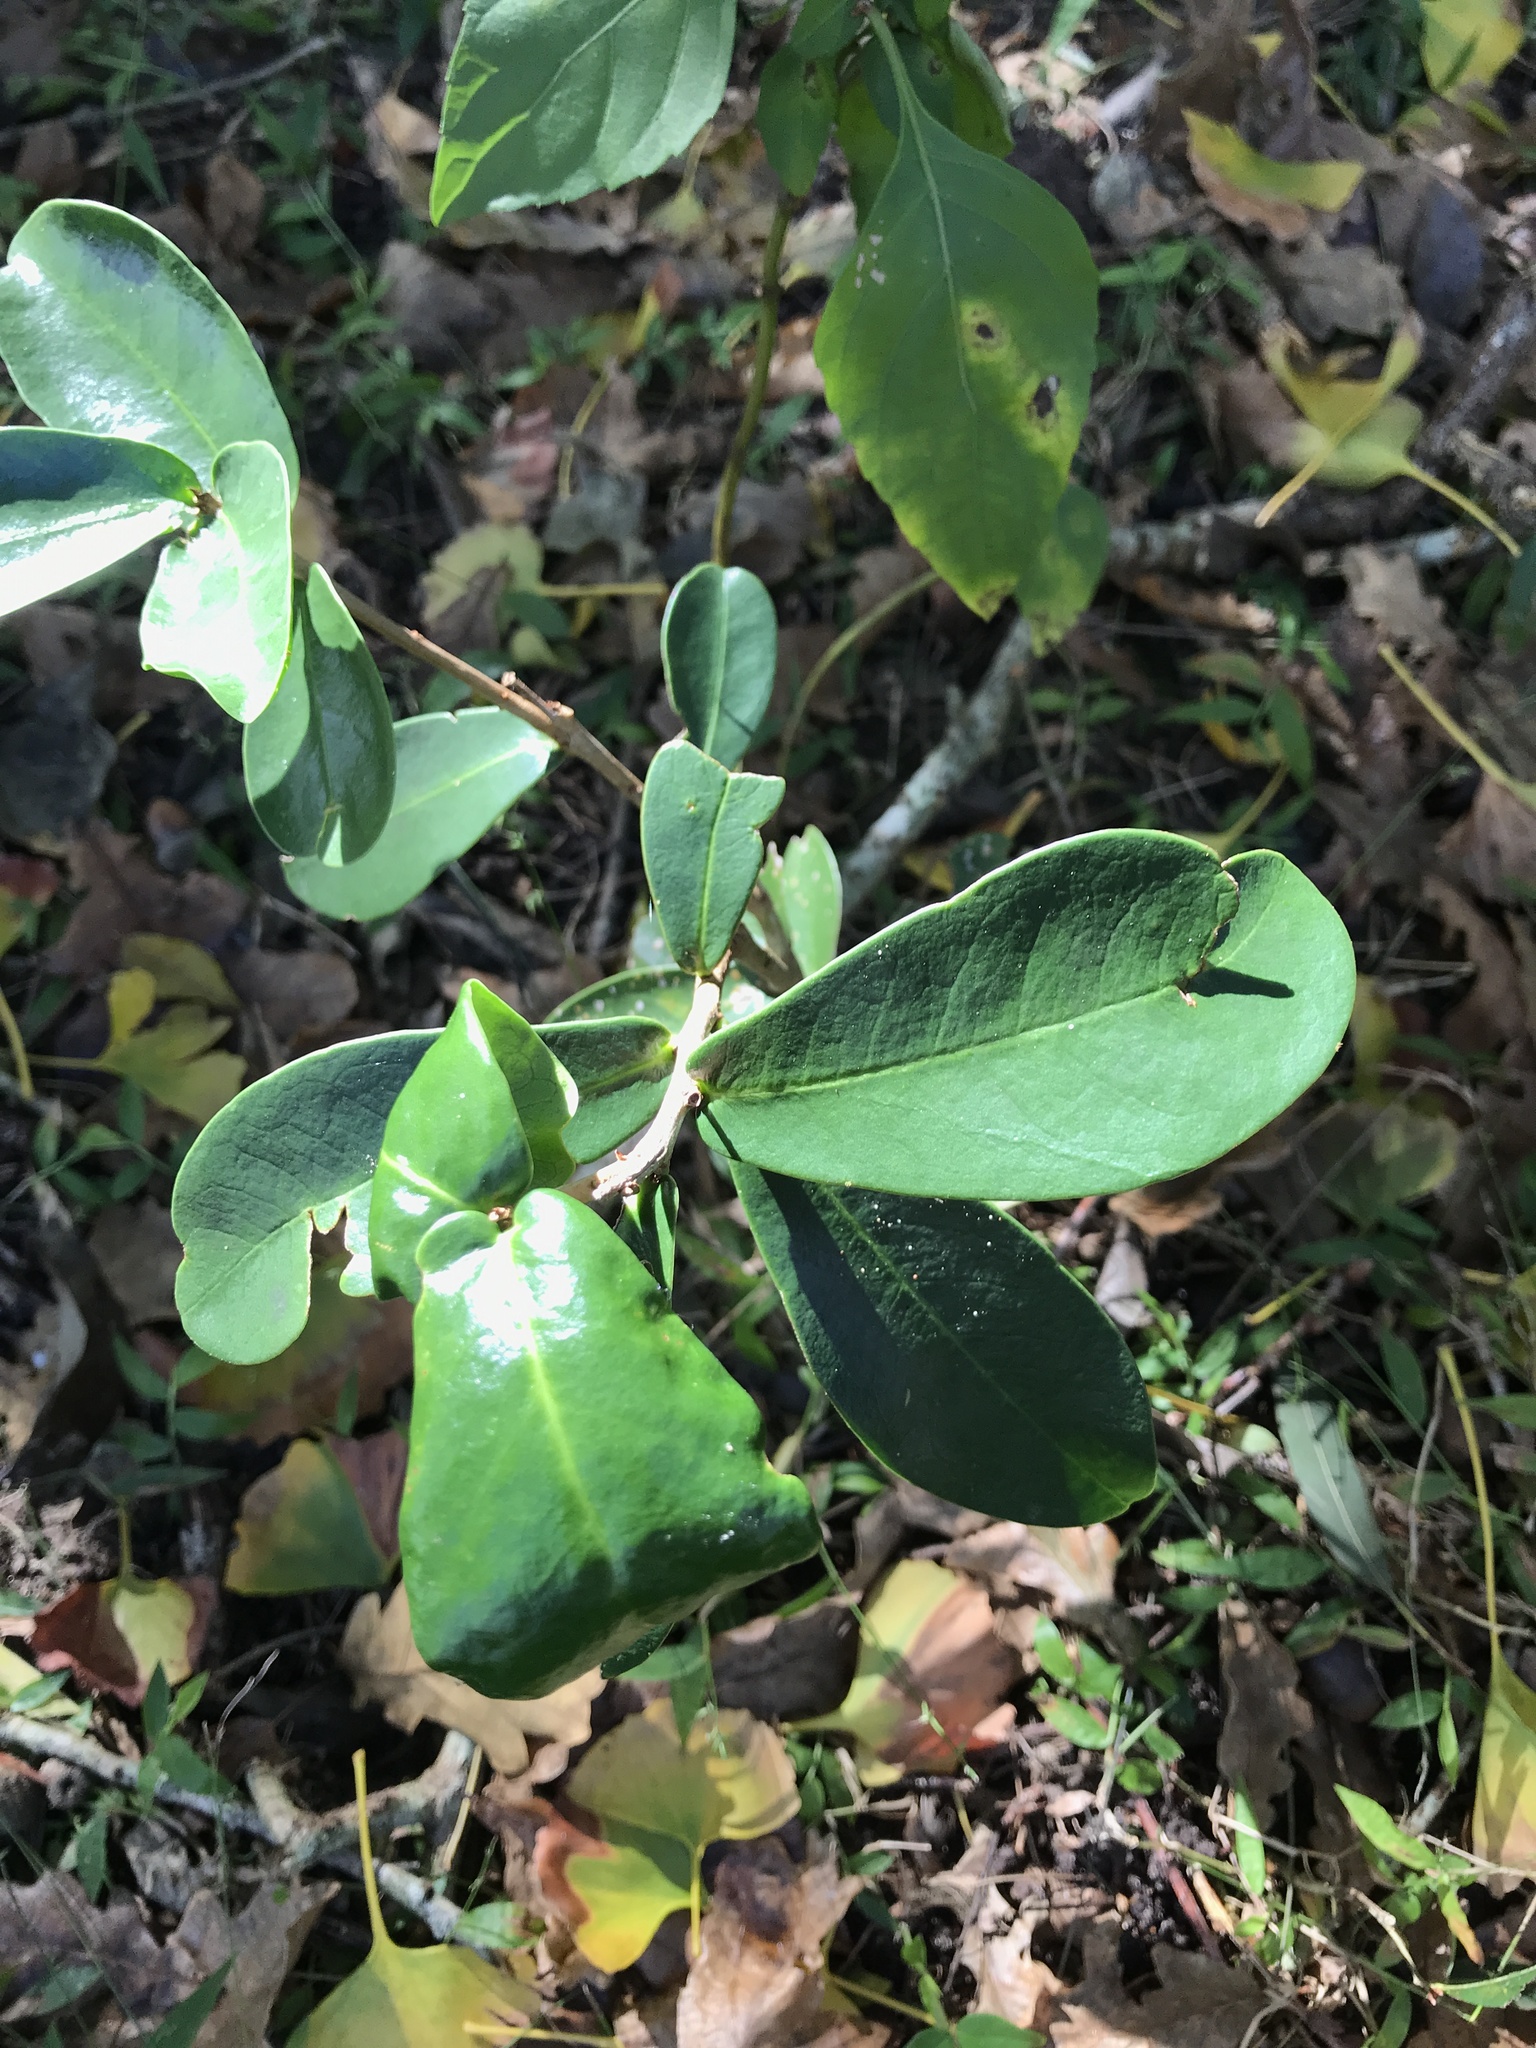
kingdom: Plantae
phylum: Tracheophyta
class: Magnoliopsida
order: Malvales
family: Thymelaeaceae
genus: Daphnopsis
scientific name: Daphnopsis racemosa
